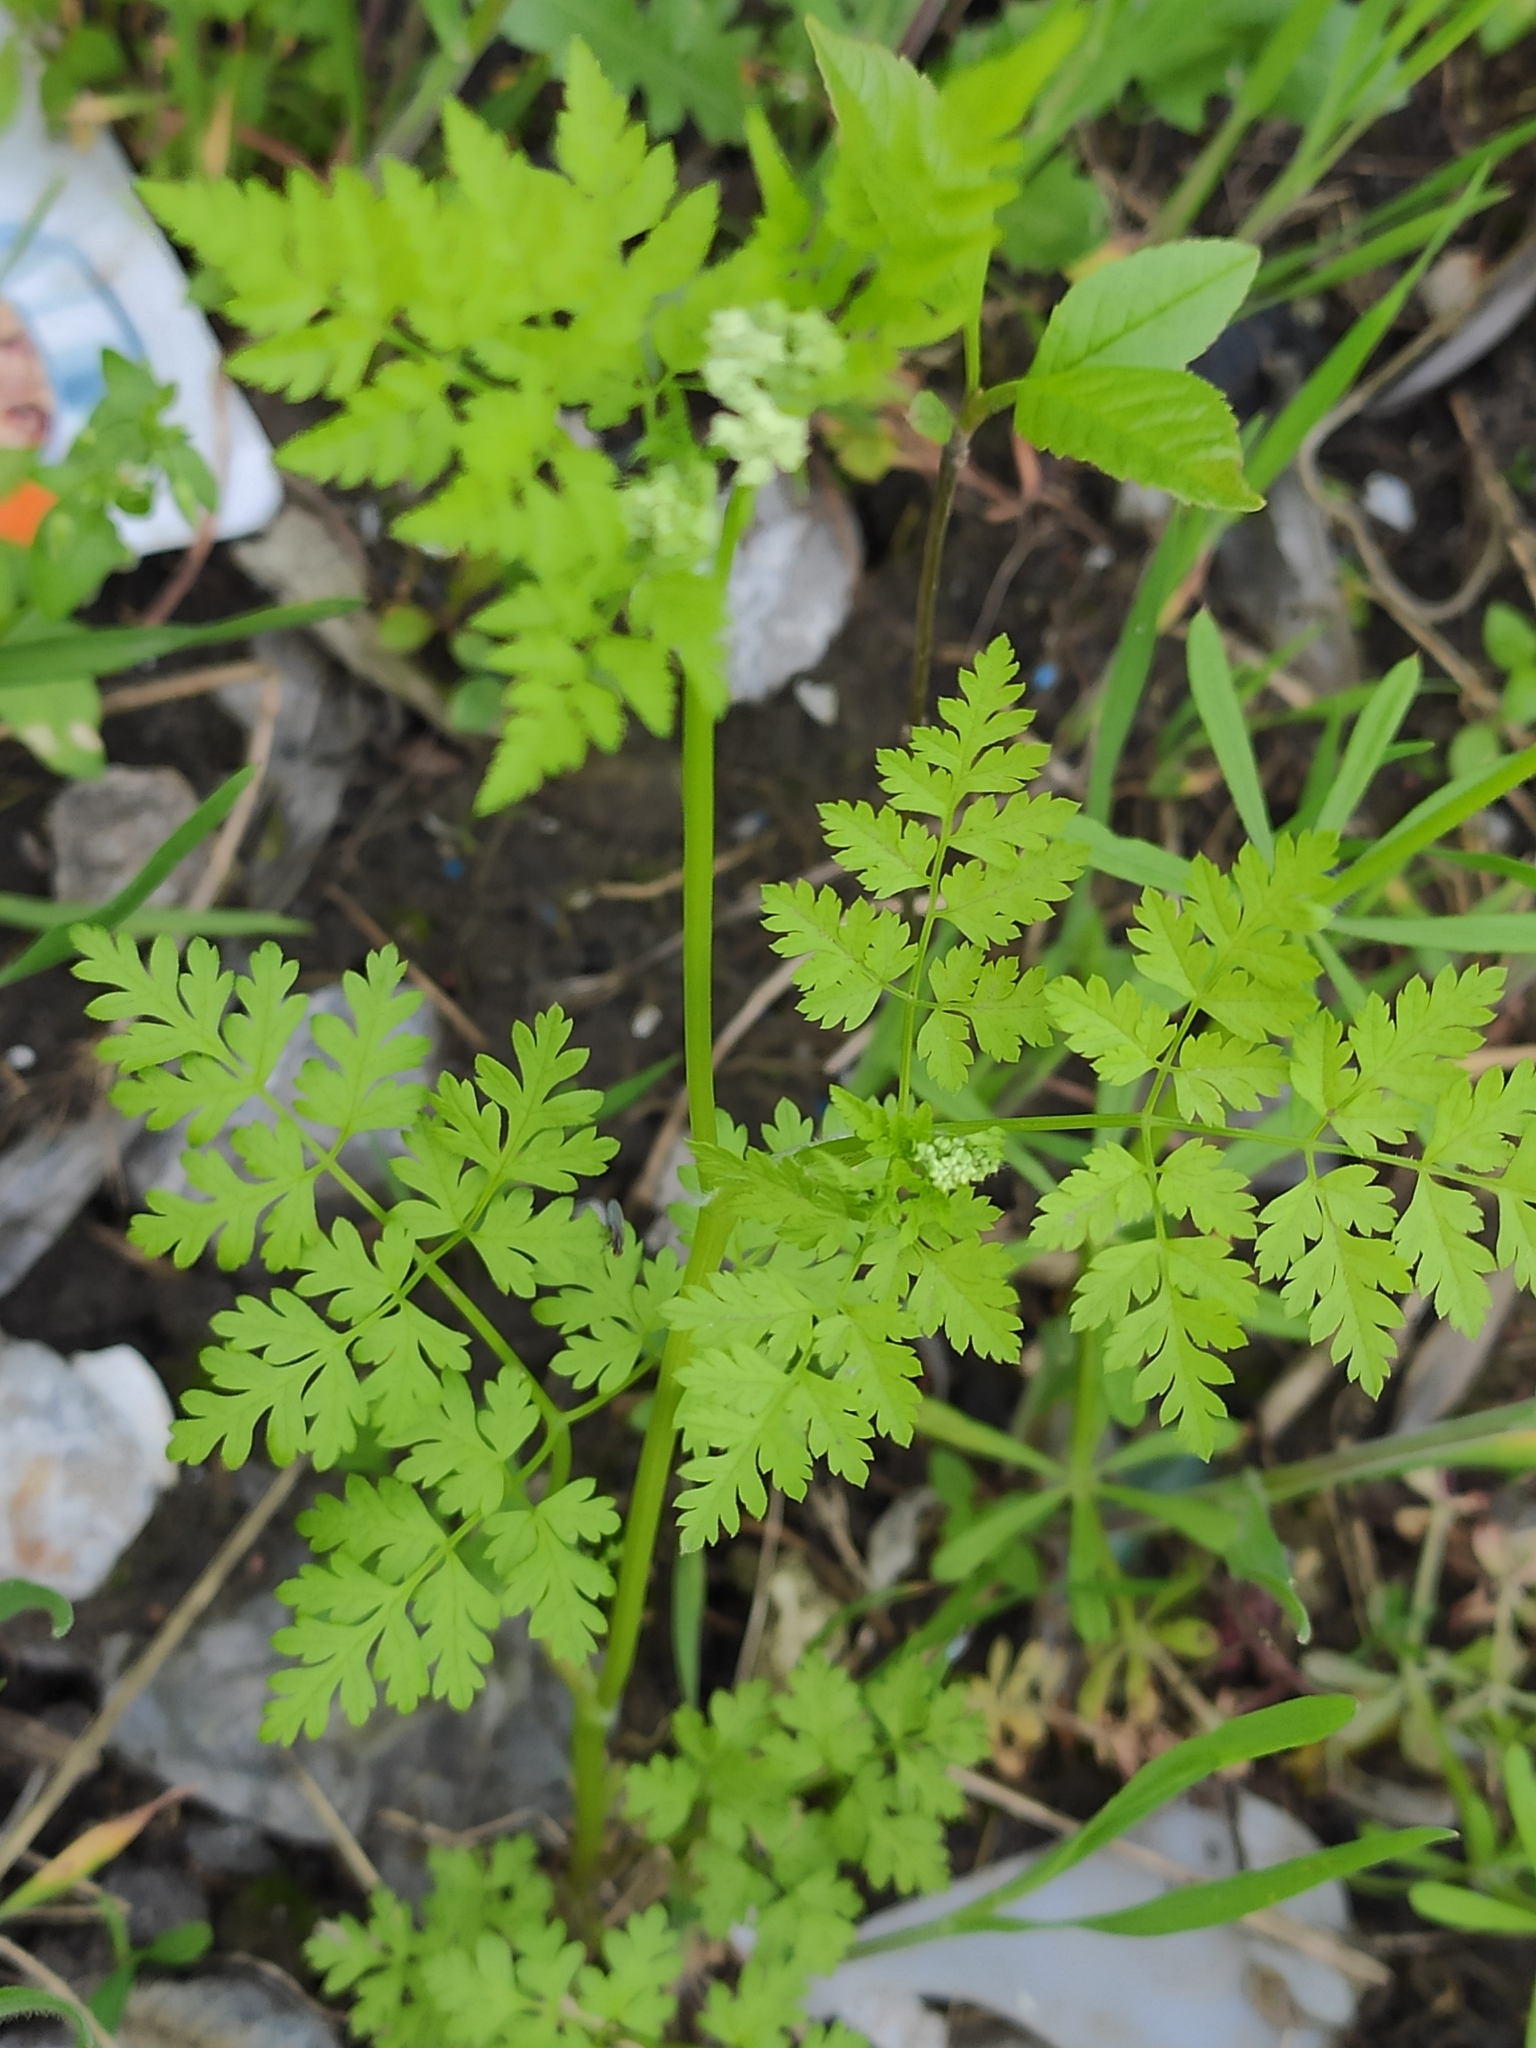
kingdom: Plantae
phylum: Tracheophyta
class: Magnoliopsida
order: Apiales
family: Apiaceae
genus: Anthriscus
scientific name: Anthriscus cerefolium
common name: Garden chervil
